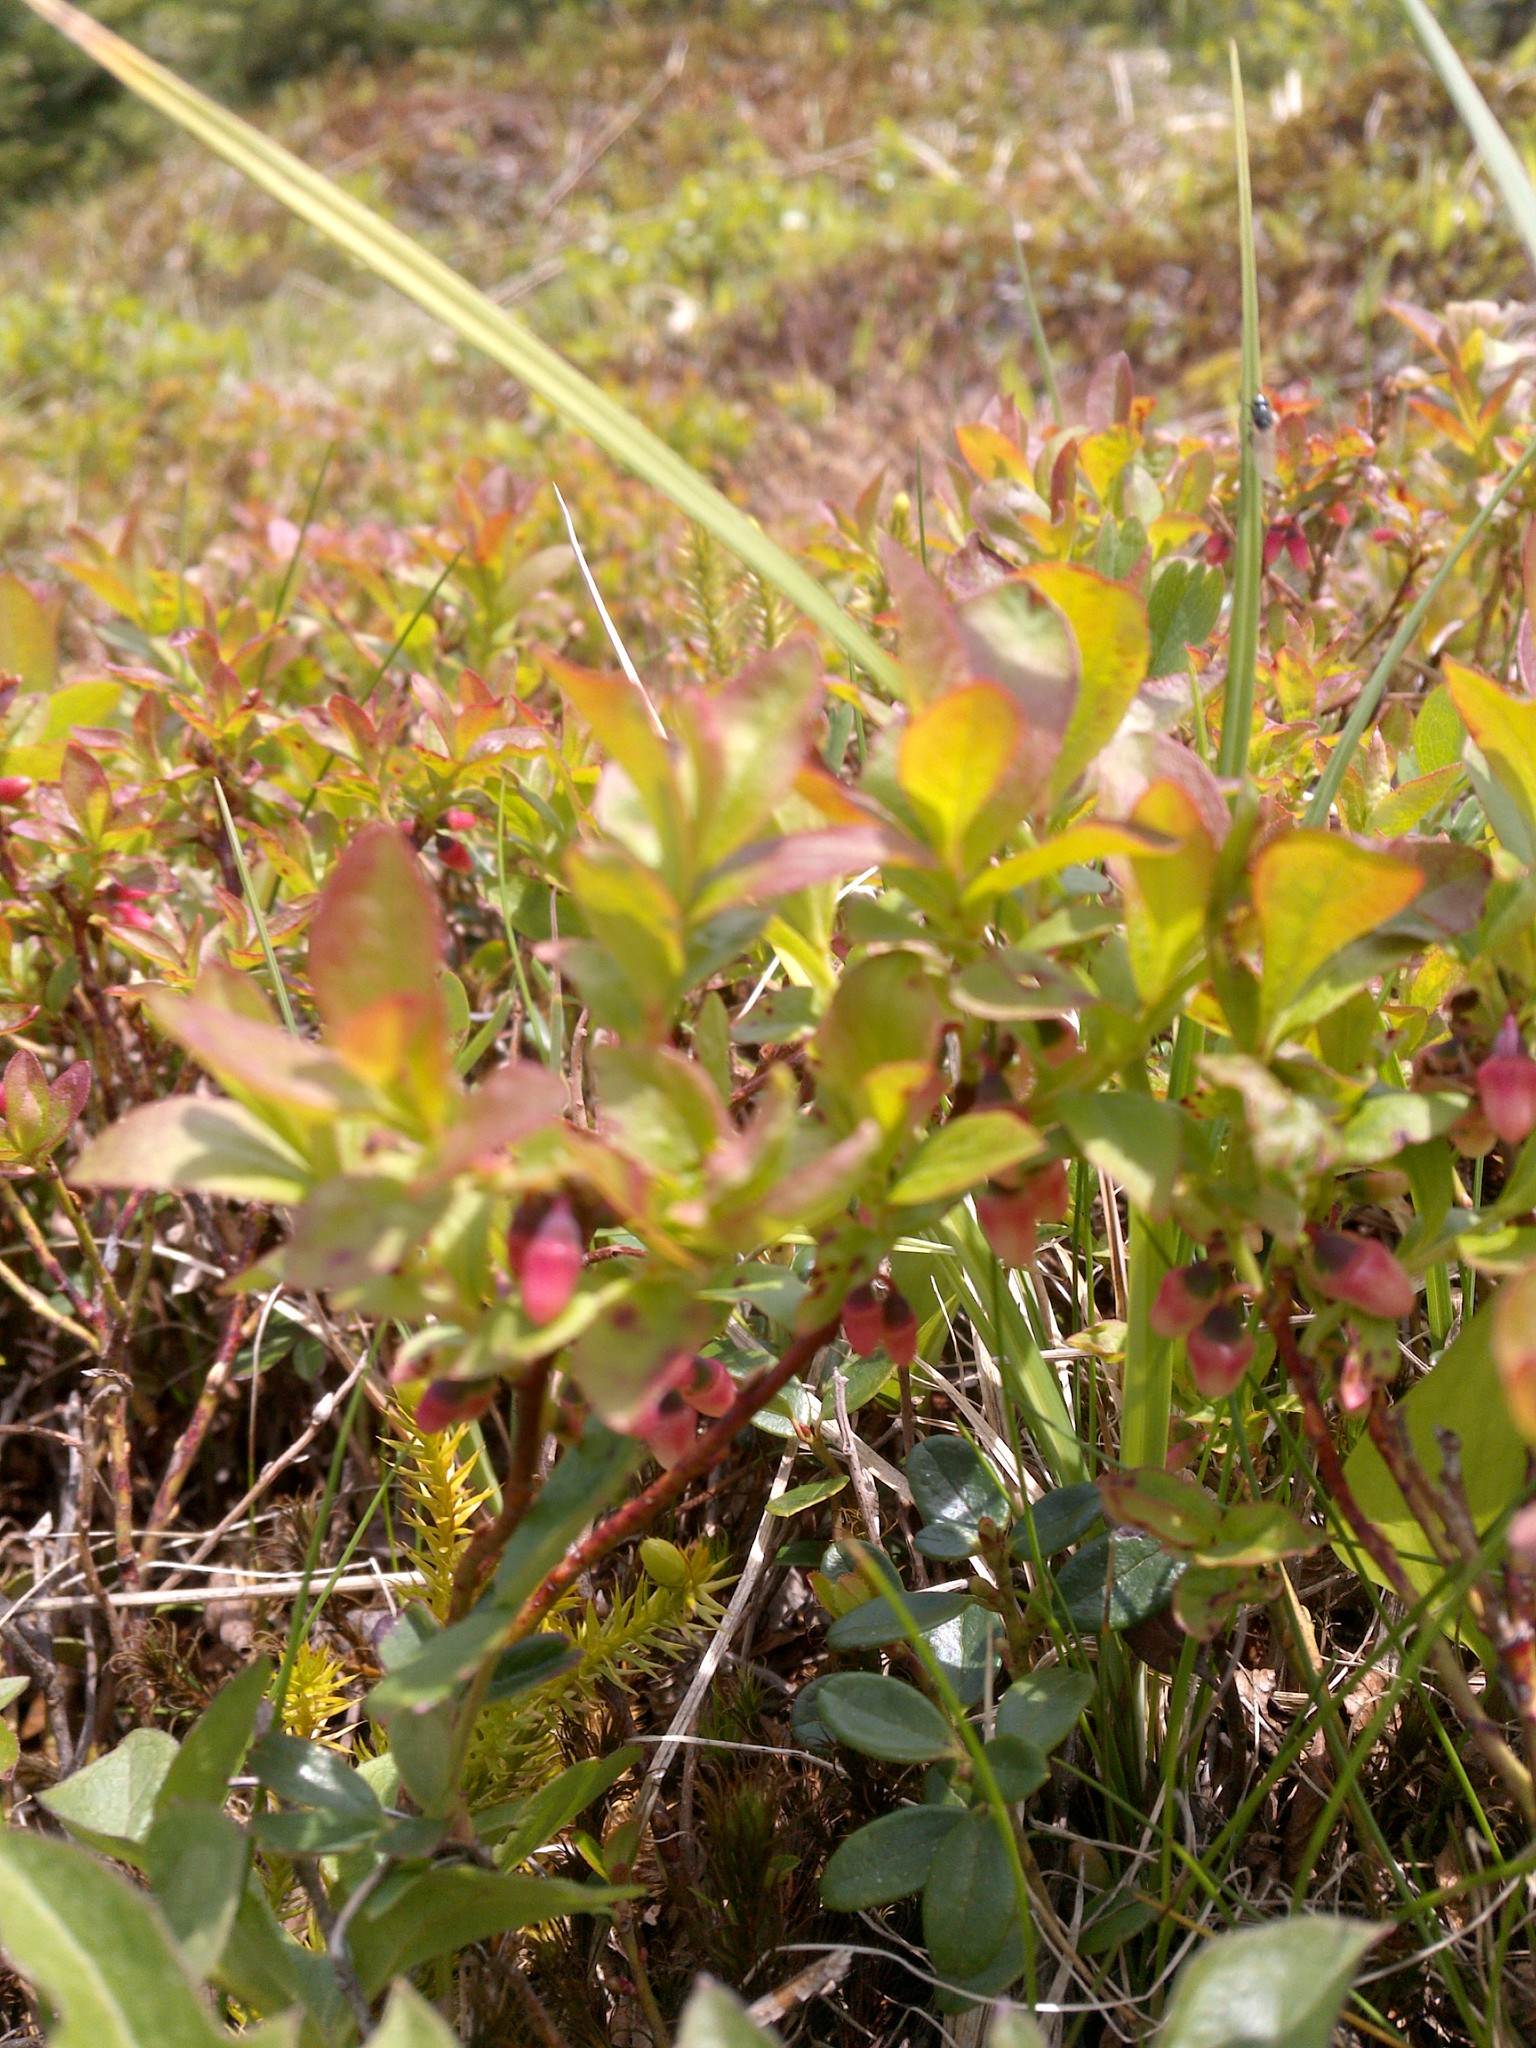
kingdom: Plantae
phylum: Tracheophyta
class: Magnoliopsida
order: Ericales
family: Ericaceae
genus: Vaccinium
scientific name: Vaccinium cespitosum
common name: Dwarf bilberry
